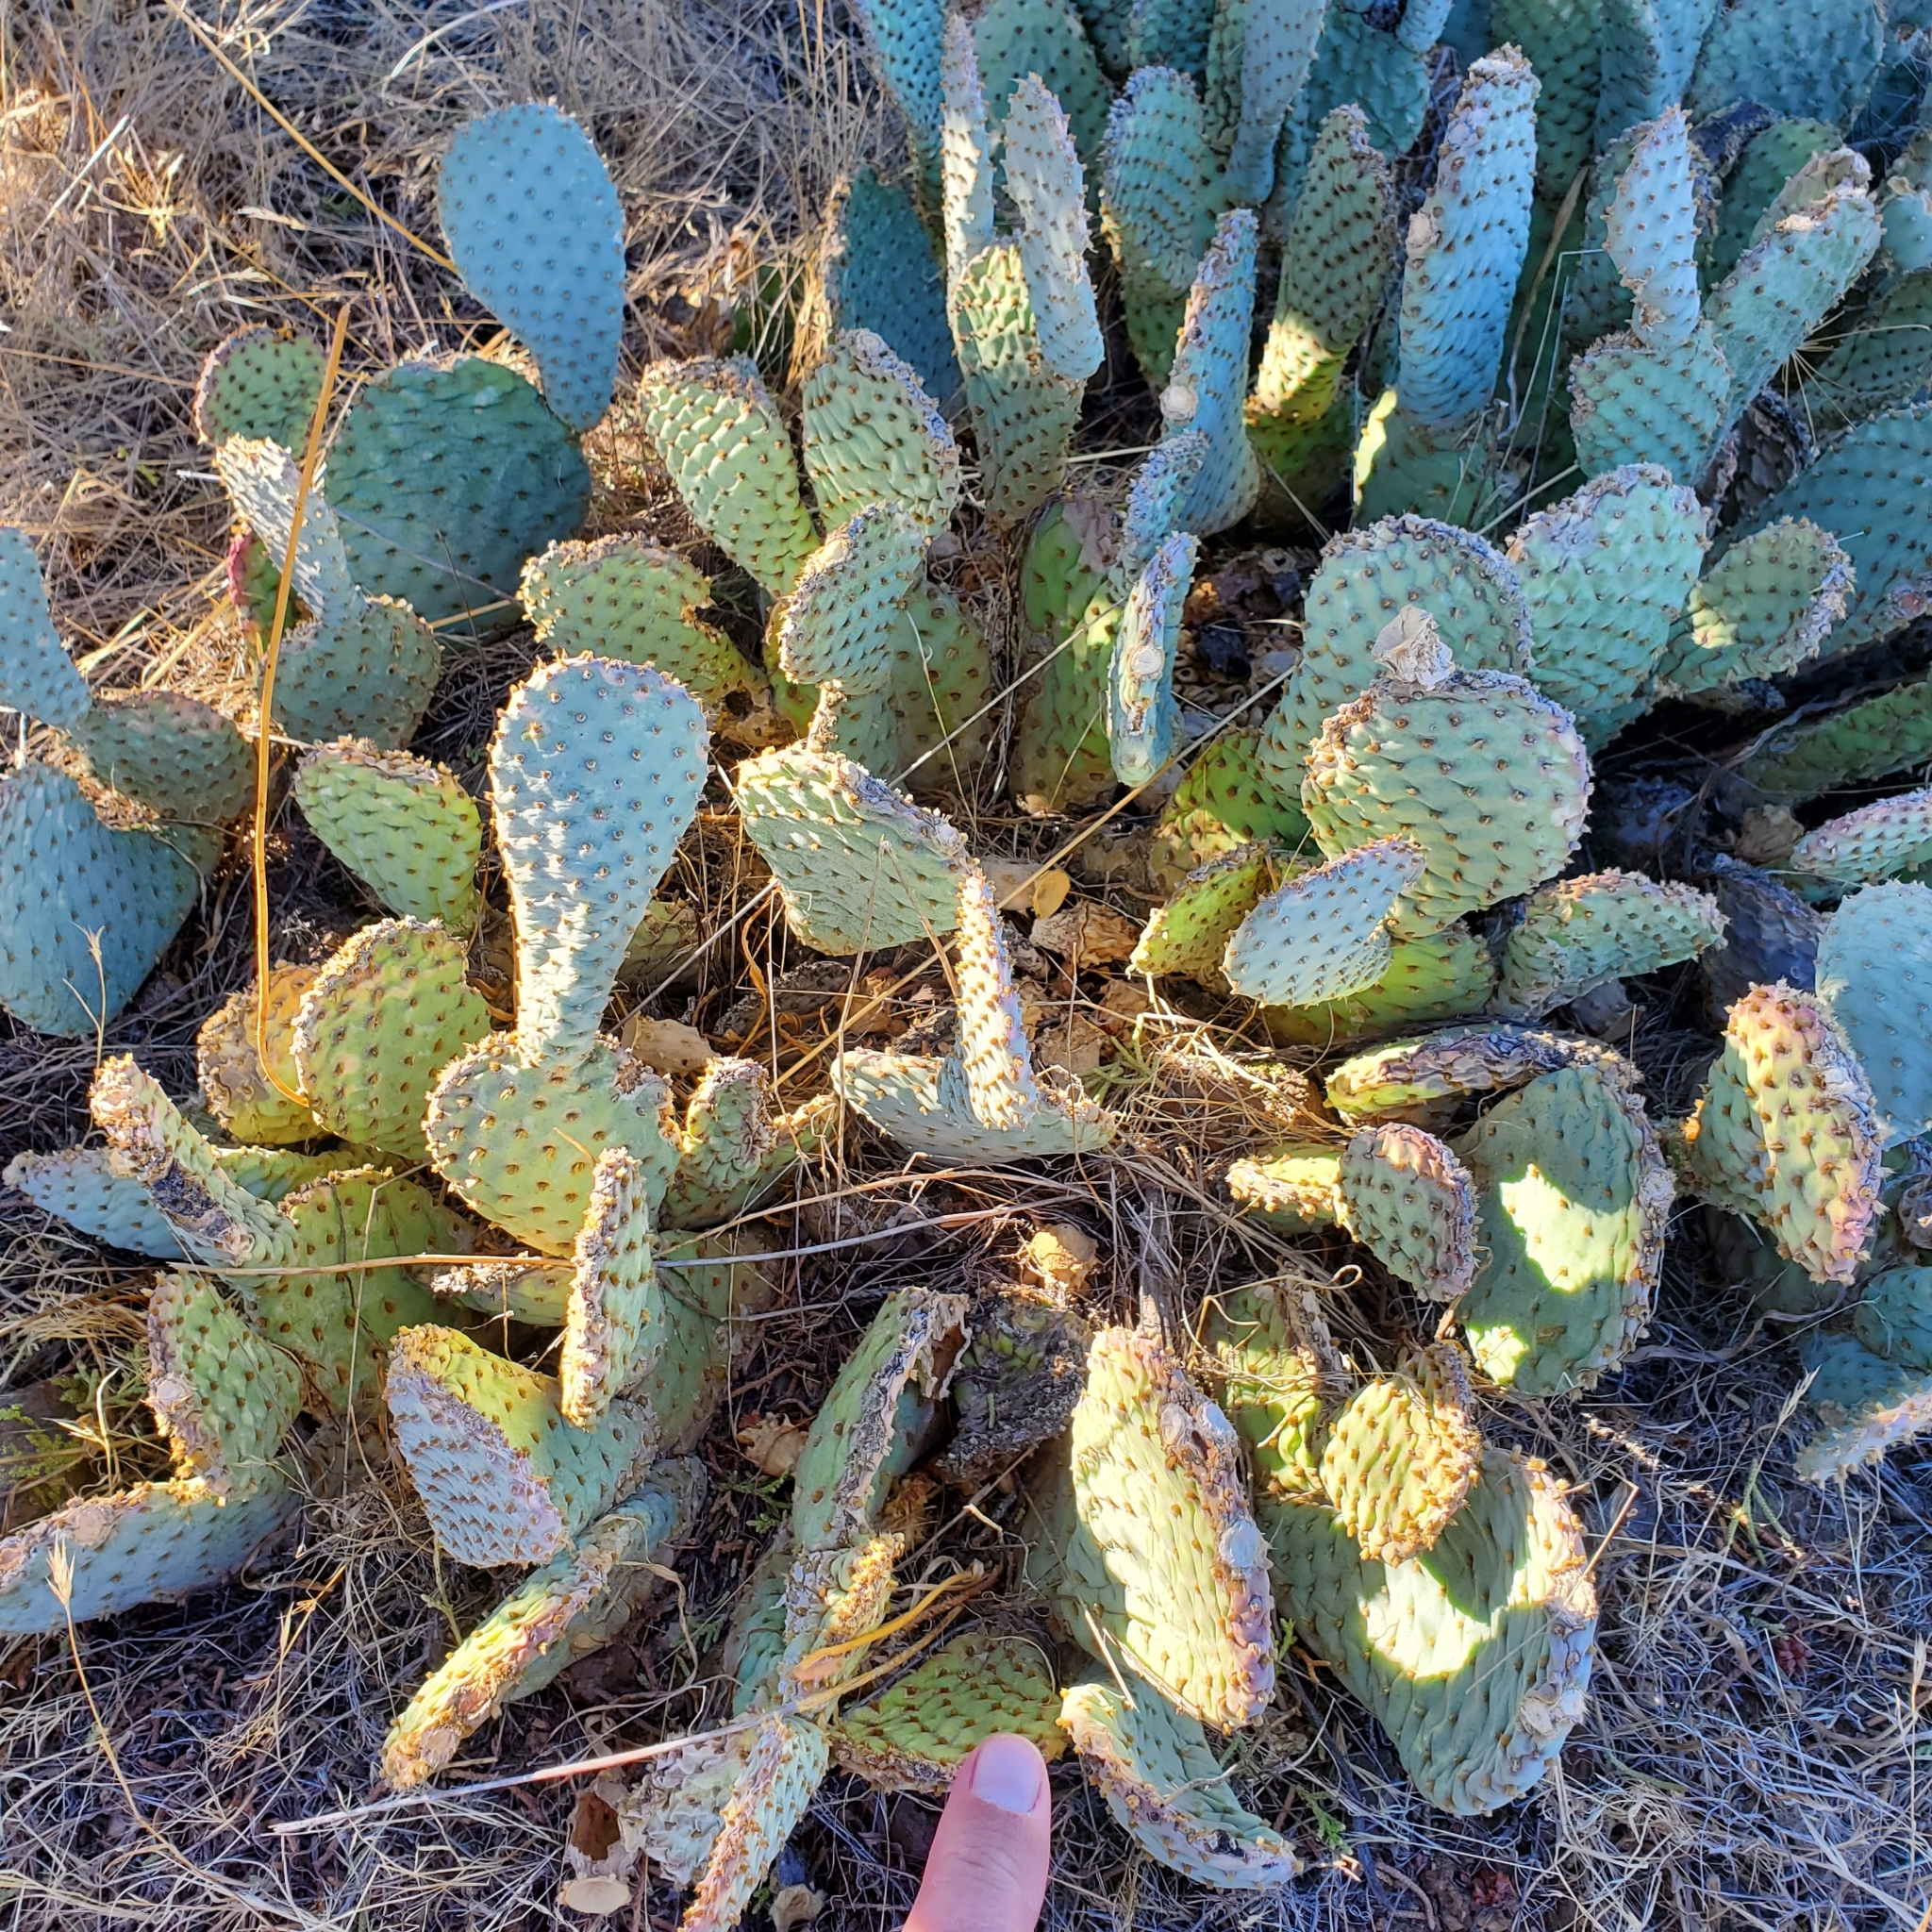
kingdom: Plantae
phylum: Tracheophyta
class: Magnoliopsida
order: Caryophyllales
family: Cactaceae
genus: Opuntia
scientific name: Opuntia basilaris
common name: Beavertail prickly-pear
